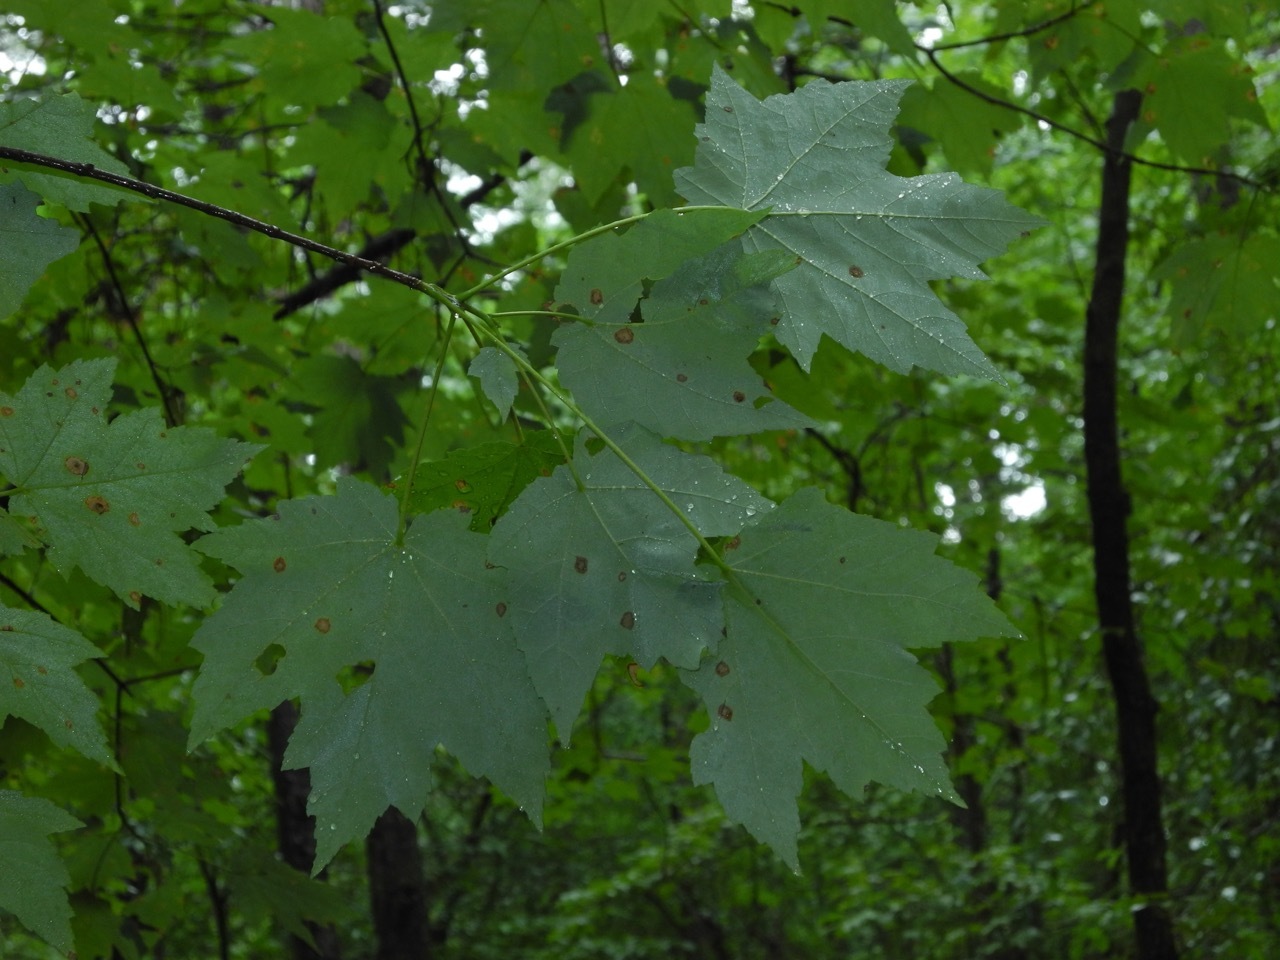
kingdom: Plantae
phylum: Tracheophyta
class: Magnoliopsida
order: Sapindales
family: Sapindaceae
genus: Acer
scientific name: Acer freemanii
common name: Freeman maple
